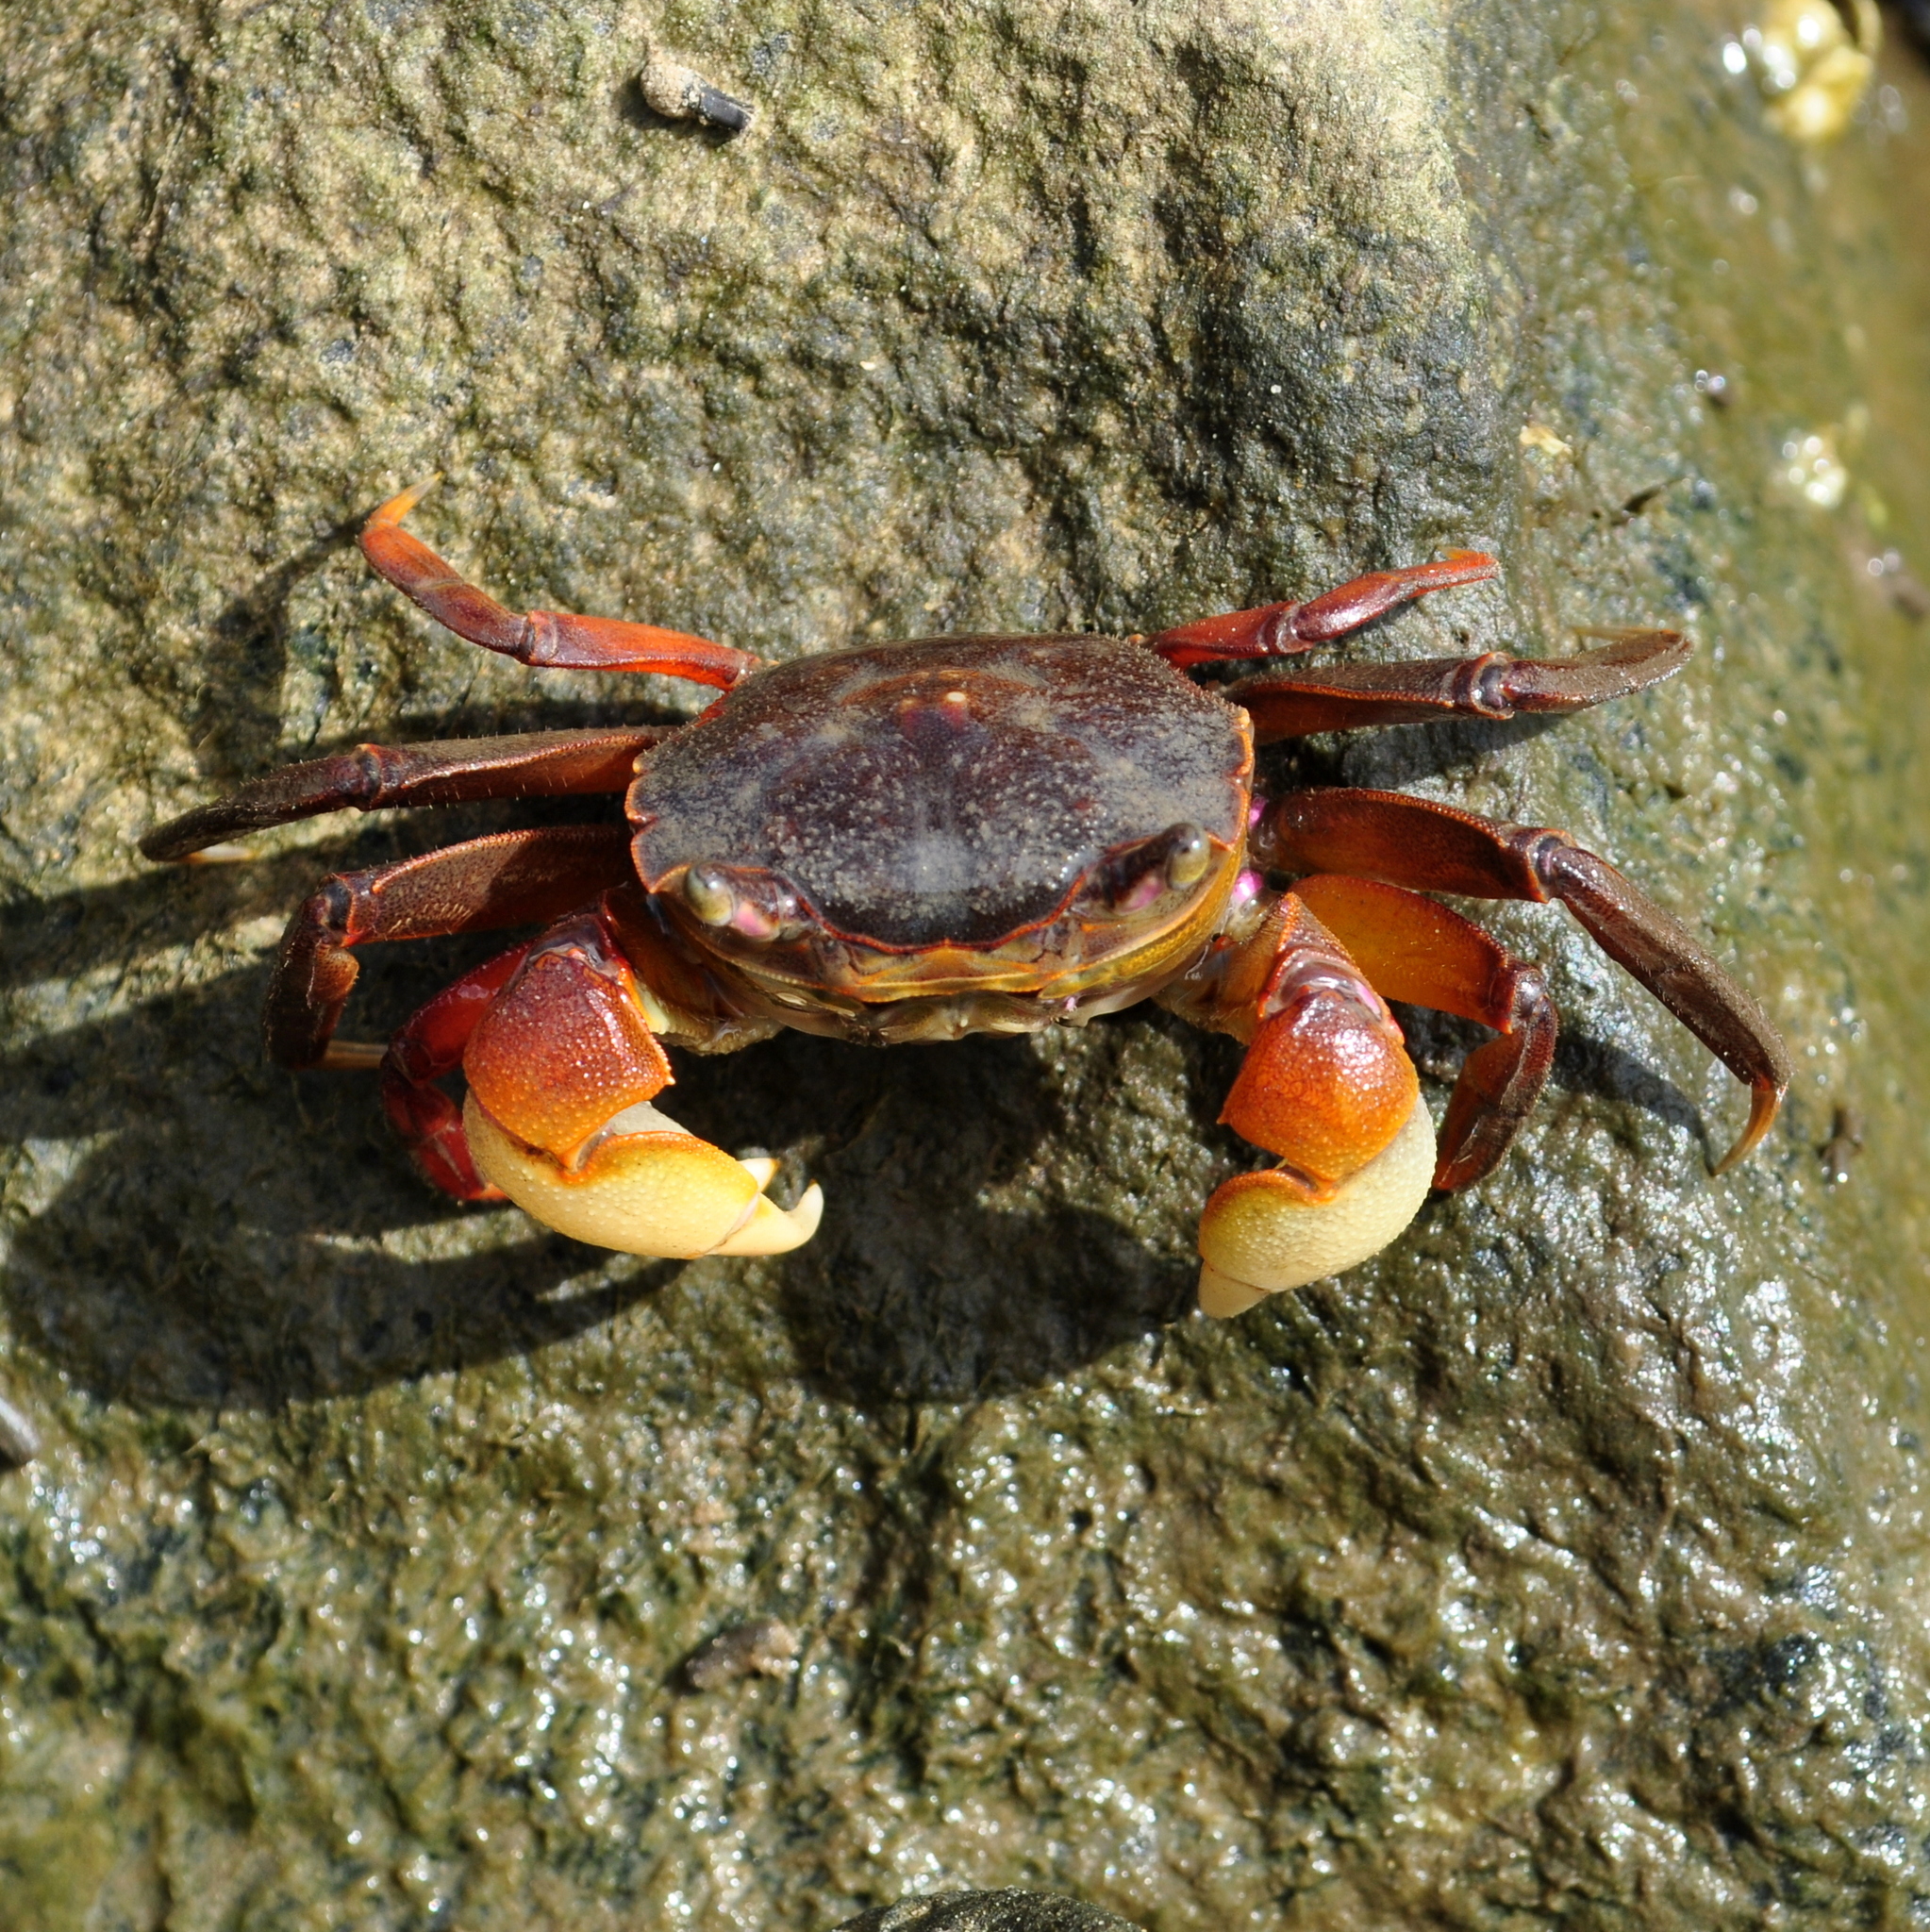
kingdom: Animalia
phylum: Arthropoda
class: Malacostraca
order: Decapoda
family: Varunidae
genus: Neohelice
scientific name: Neohelice granulata
